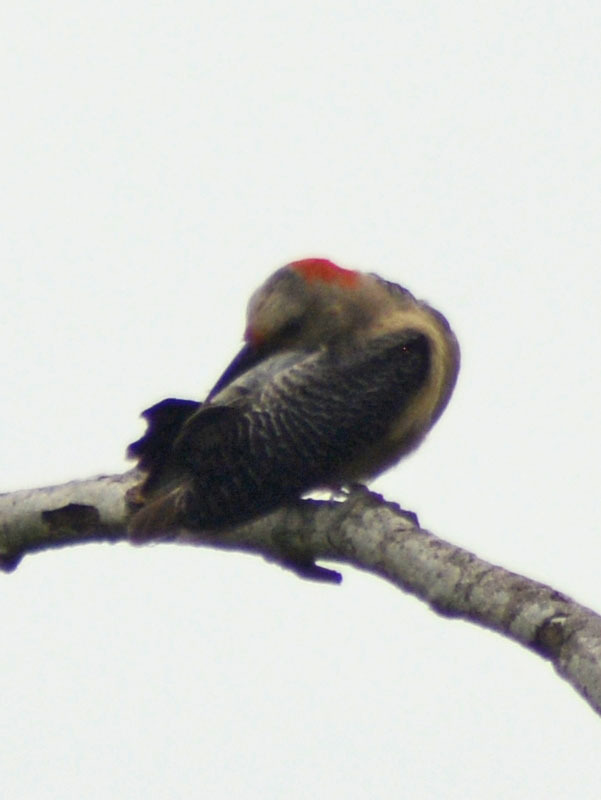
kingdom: Animalia
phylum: Chordata
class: Aves
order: Piciformes
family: Picidae
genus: Melanerpes
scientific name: Melanerpes aurifrons
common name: Golden-fronted woodpecker
